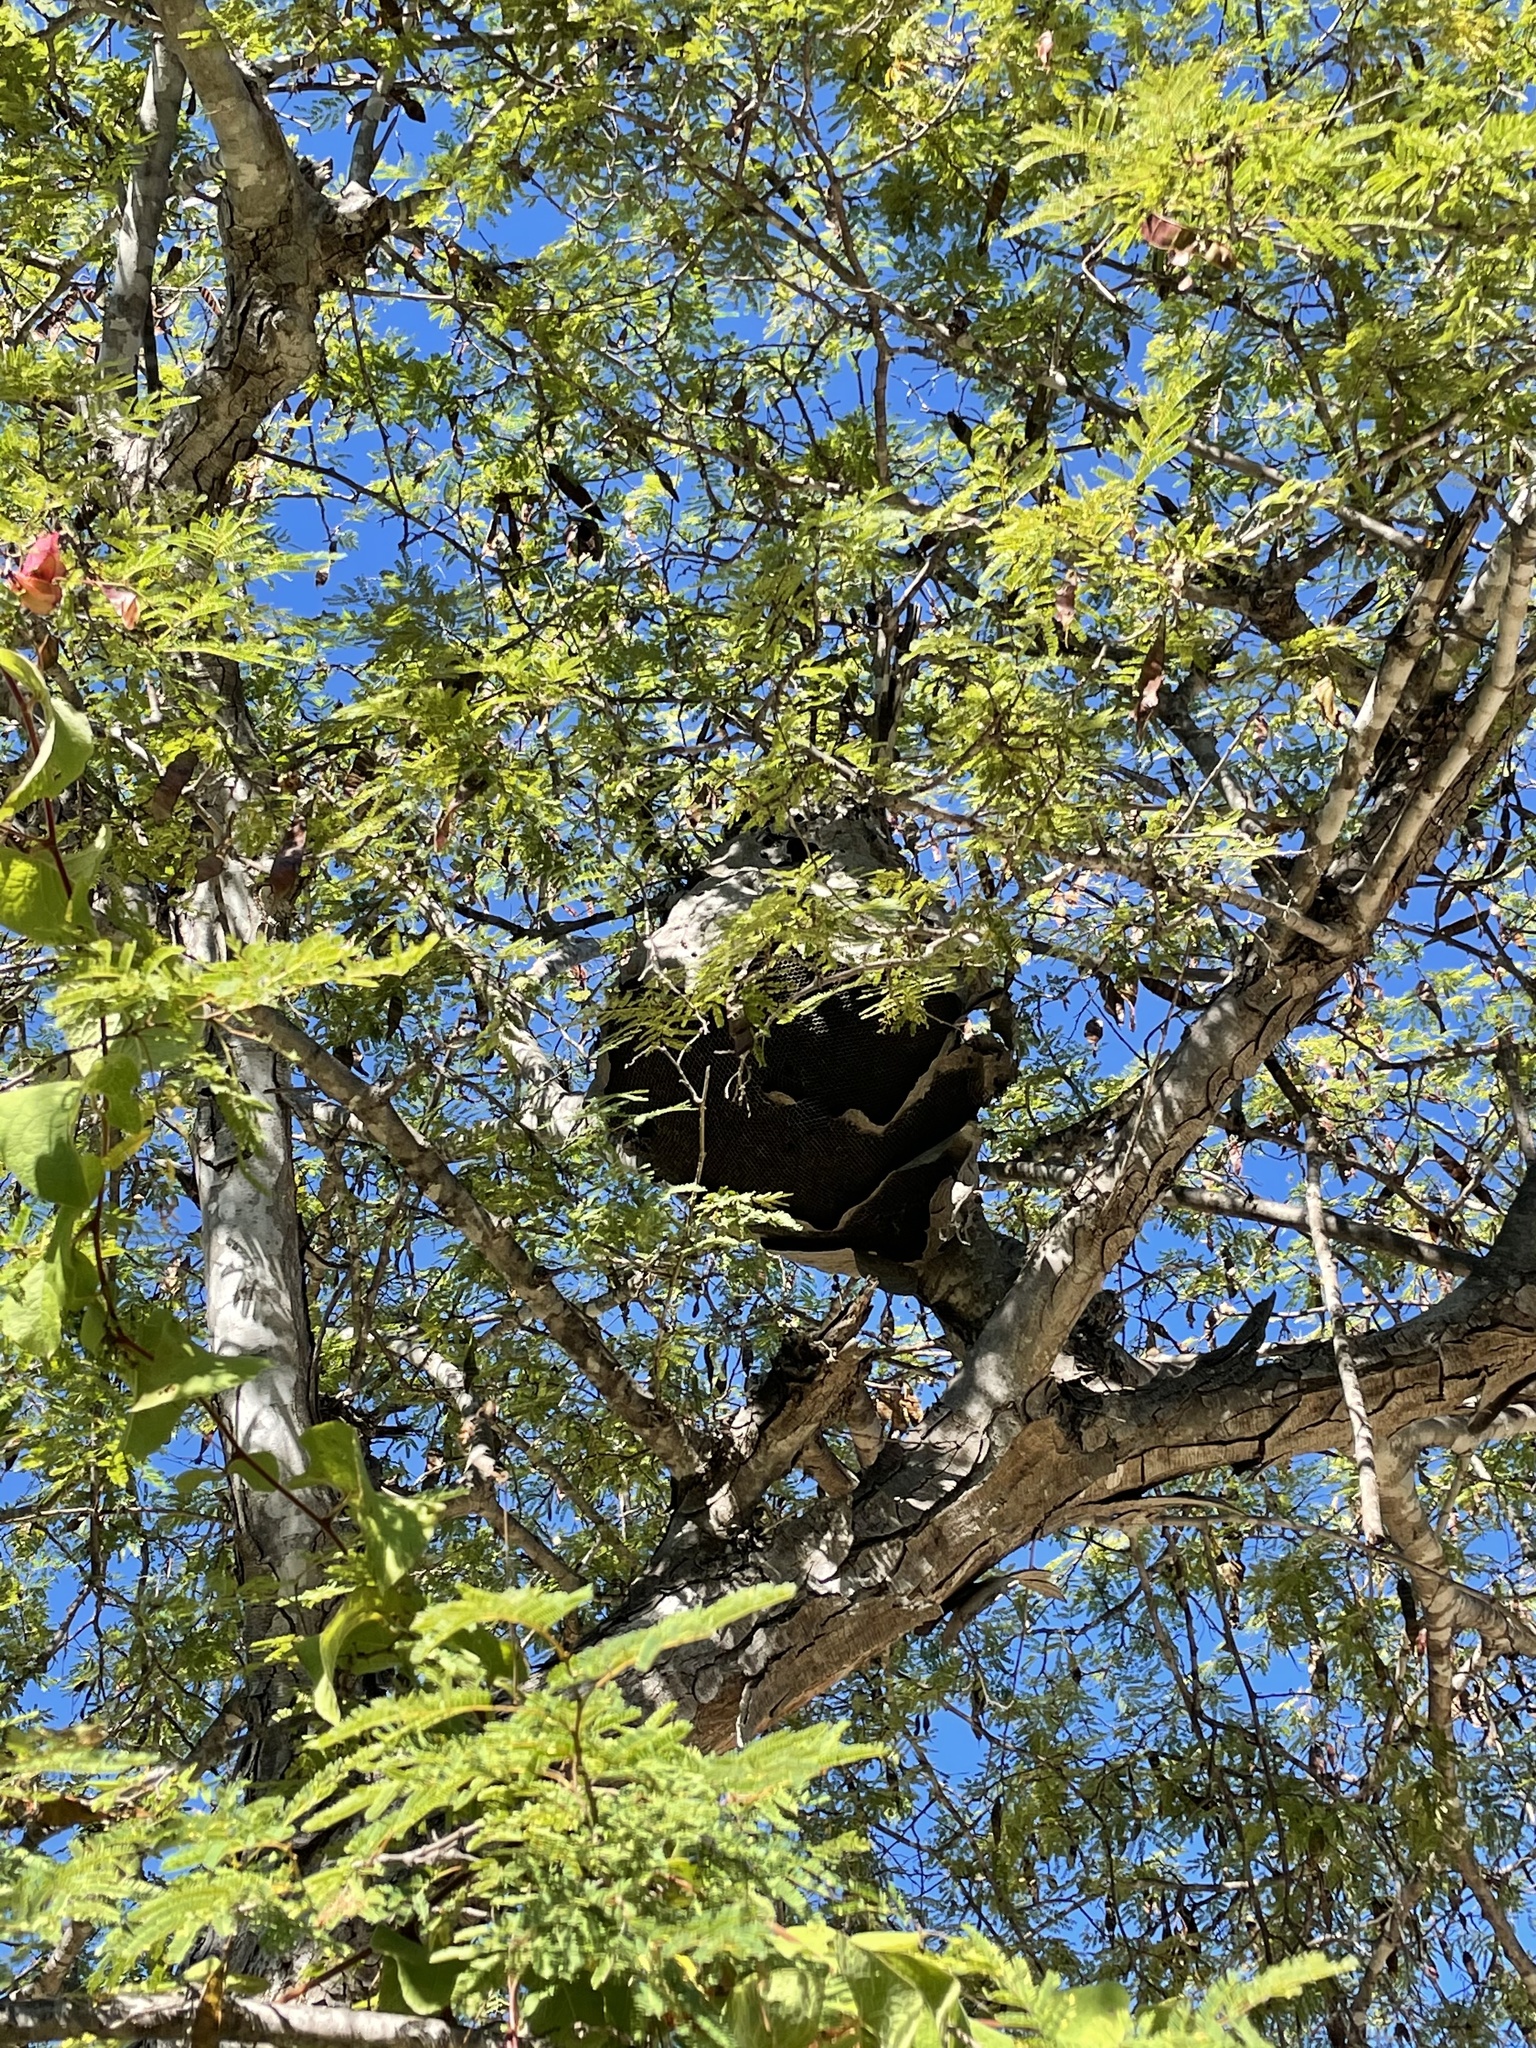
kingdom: Animalia
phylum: Arthropoda
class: Insecta
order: Hymenoptera
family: Vespidae
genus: Brachygastra
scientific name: Brachygastra mellifica
